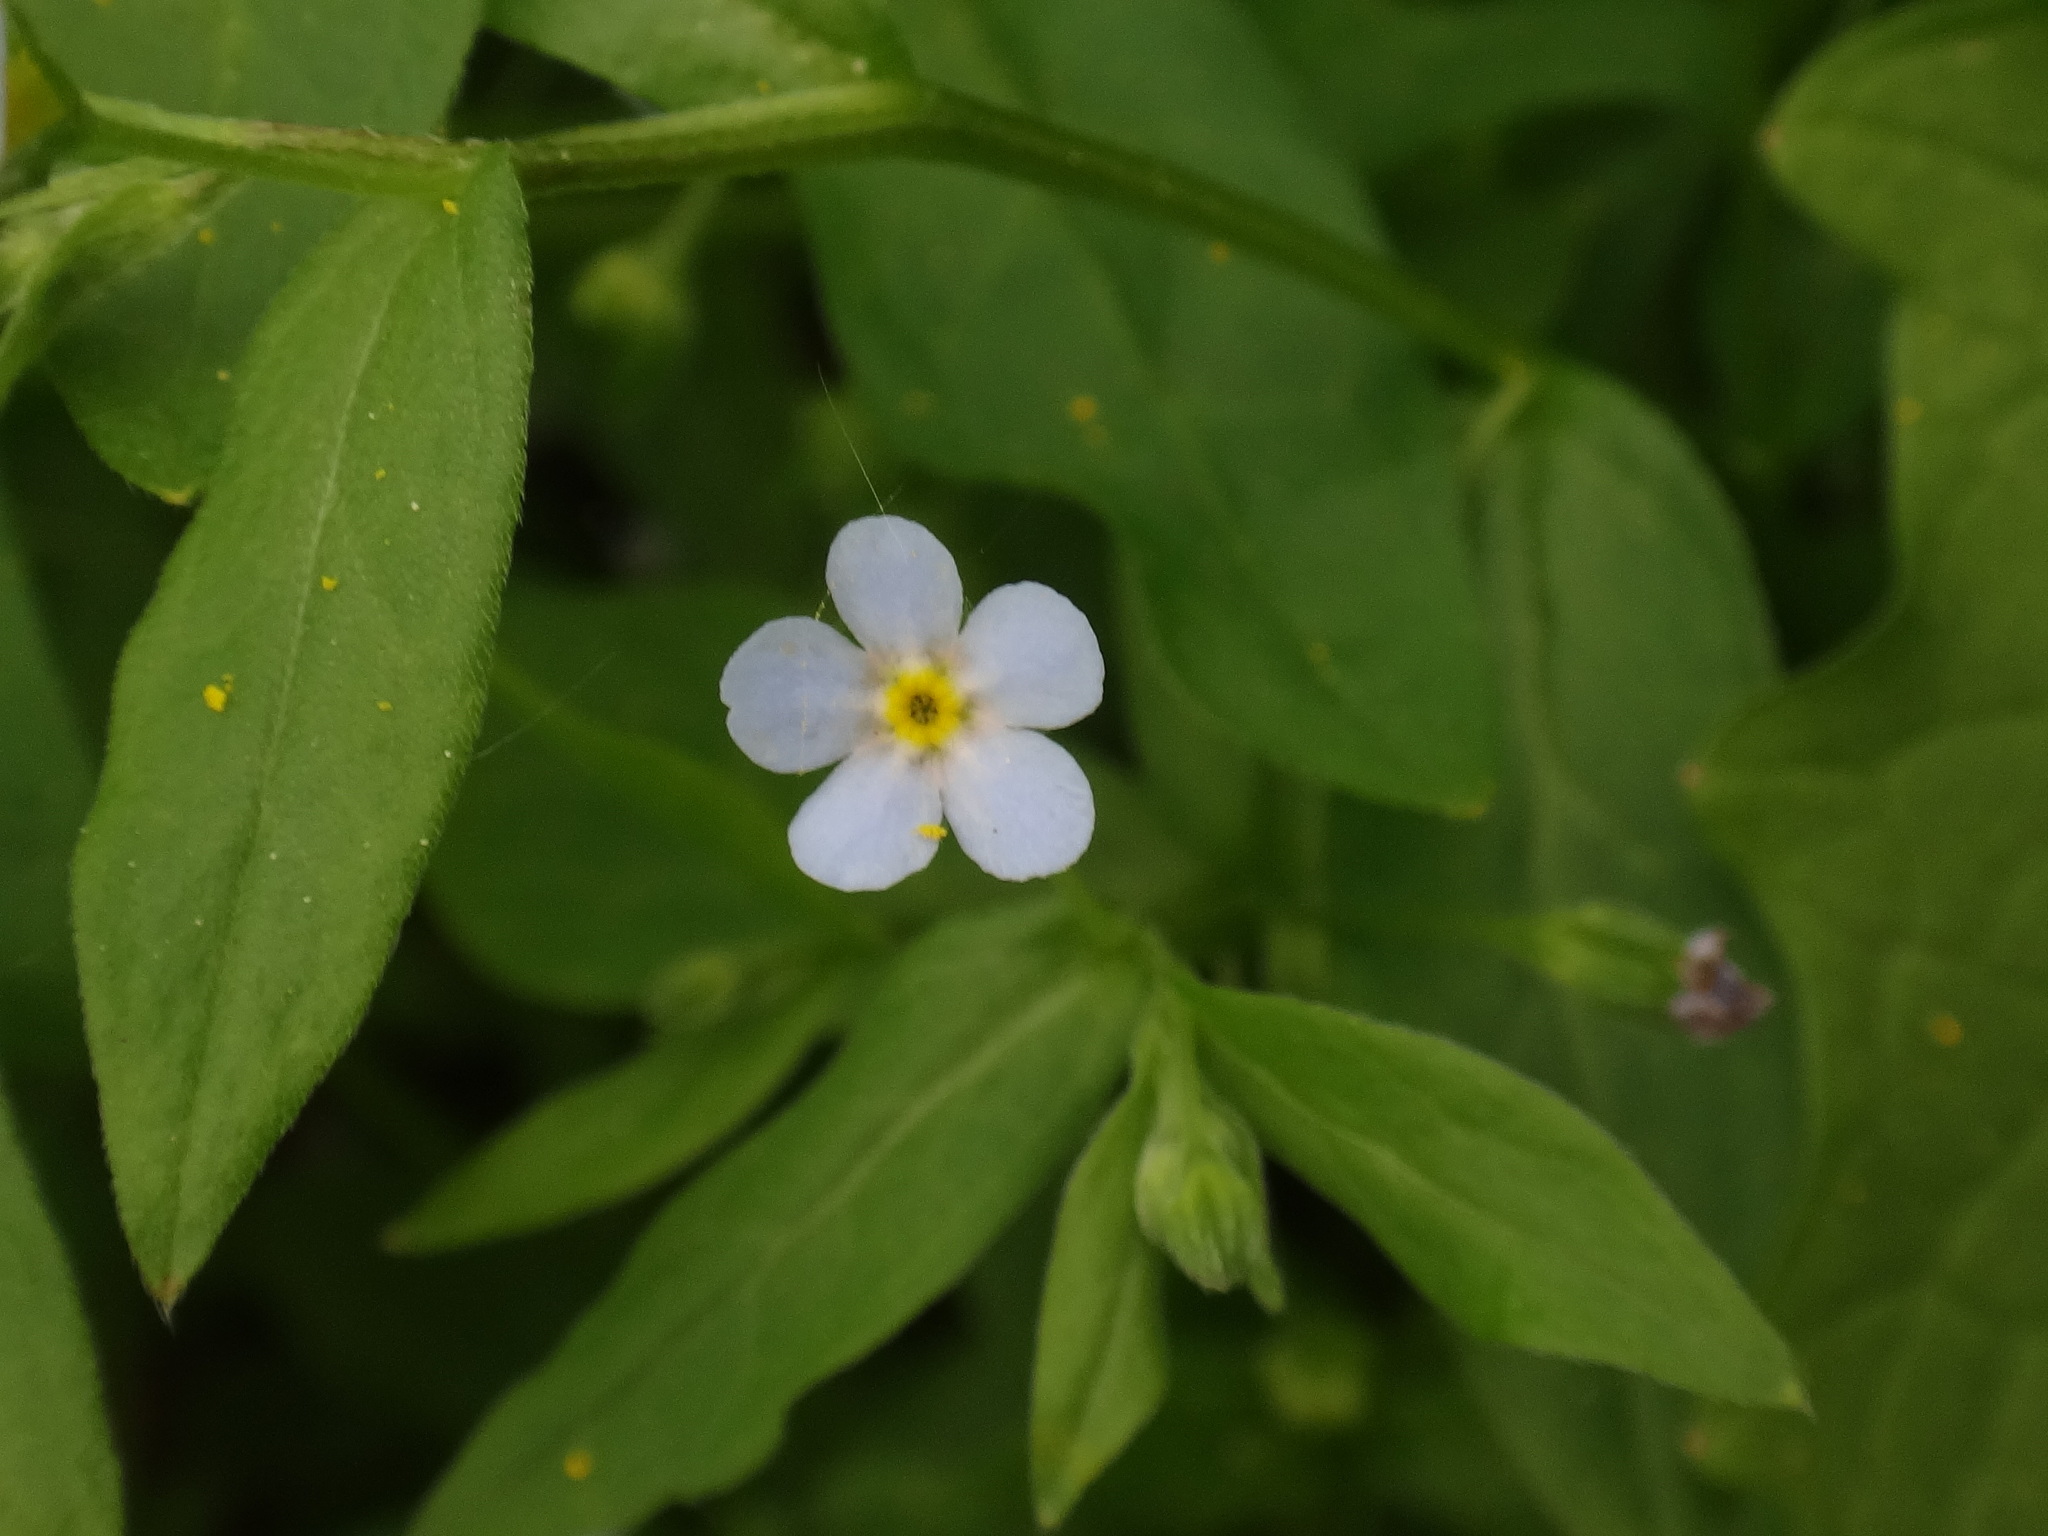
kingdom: Plantae
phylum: Tracheophyta
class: Magnoliopsida
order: Boraginales
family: Boraginaceae
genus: Memoremea
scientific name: Memoremea scorpioides
